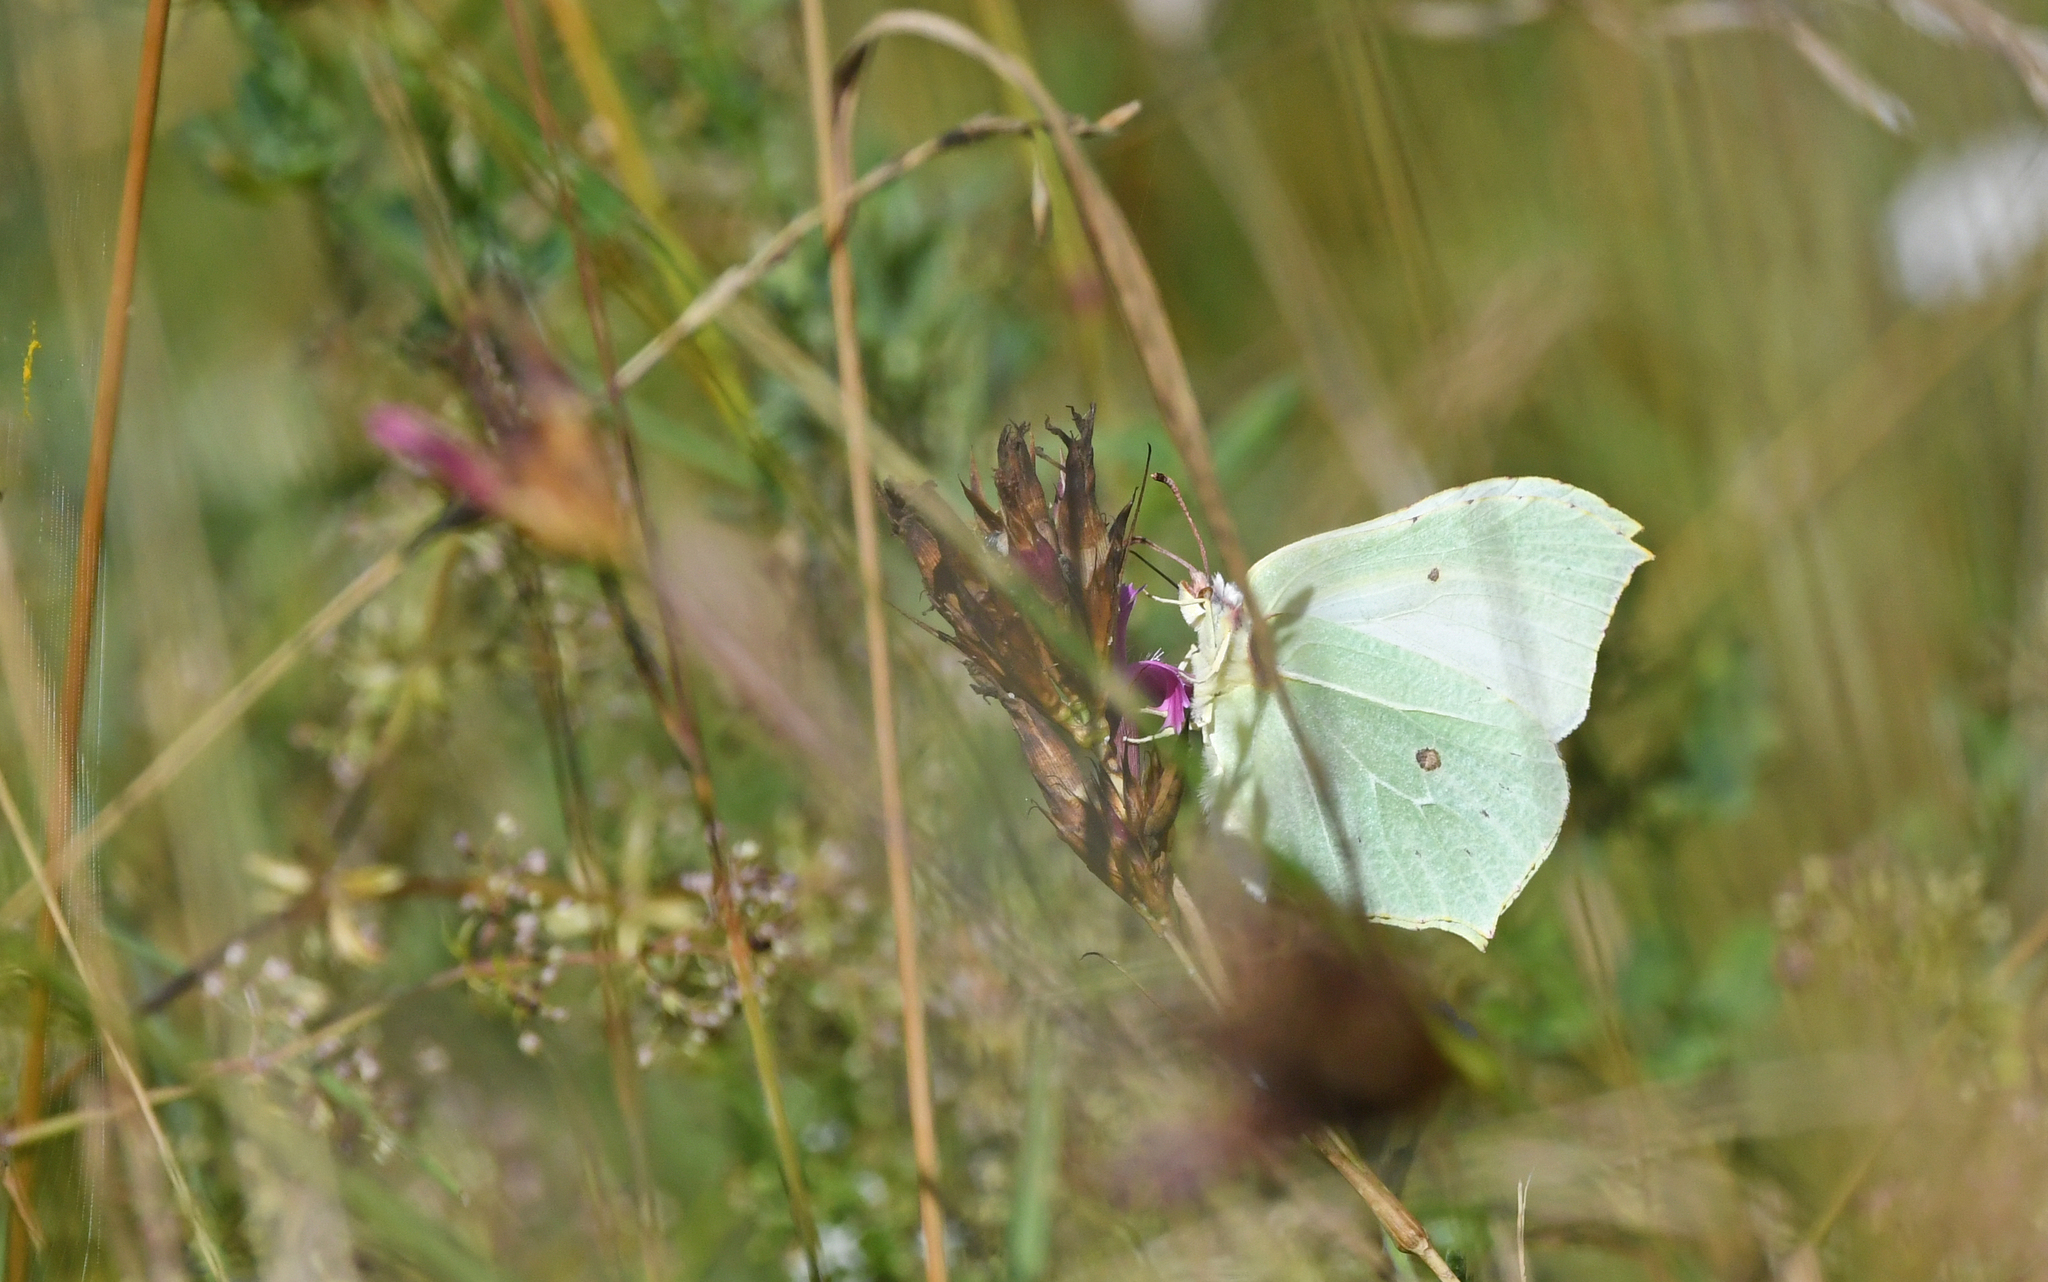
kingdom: Animalia
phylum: Arthropoda
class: Insecta
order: Lepidoptera
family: Pieridae
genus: Gonepteryx
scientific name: Gonepteryx rhamni
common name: Brimstone
